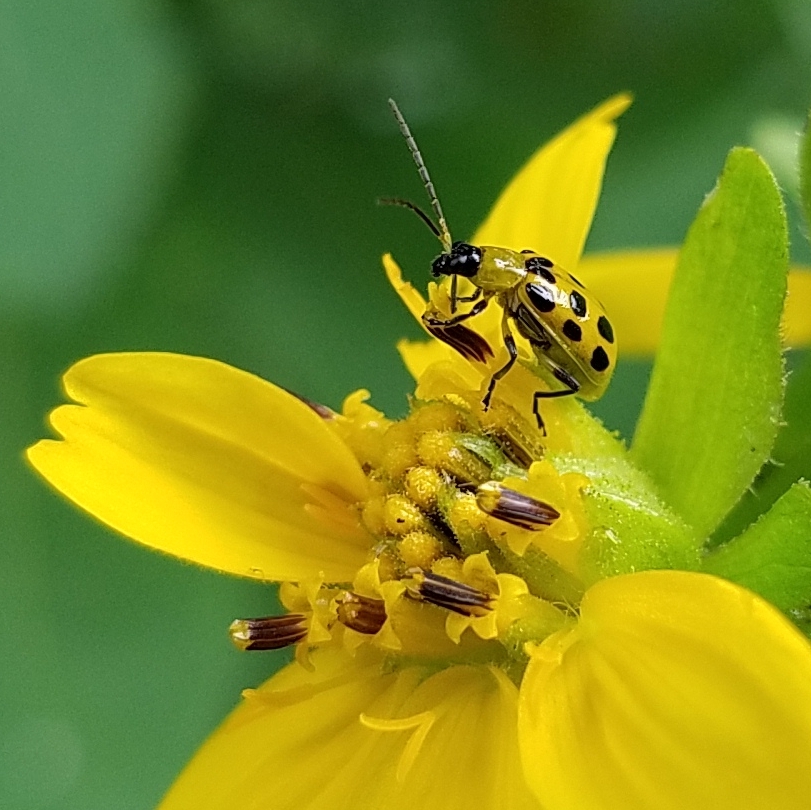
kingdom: Animalia
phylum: Arthropoda
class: Insecta
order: Coleoptera
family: Chrysomelidae
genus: Diabrotica
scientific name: Diabrotica undecimpunctata
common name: Spotted cucumber beetle
